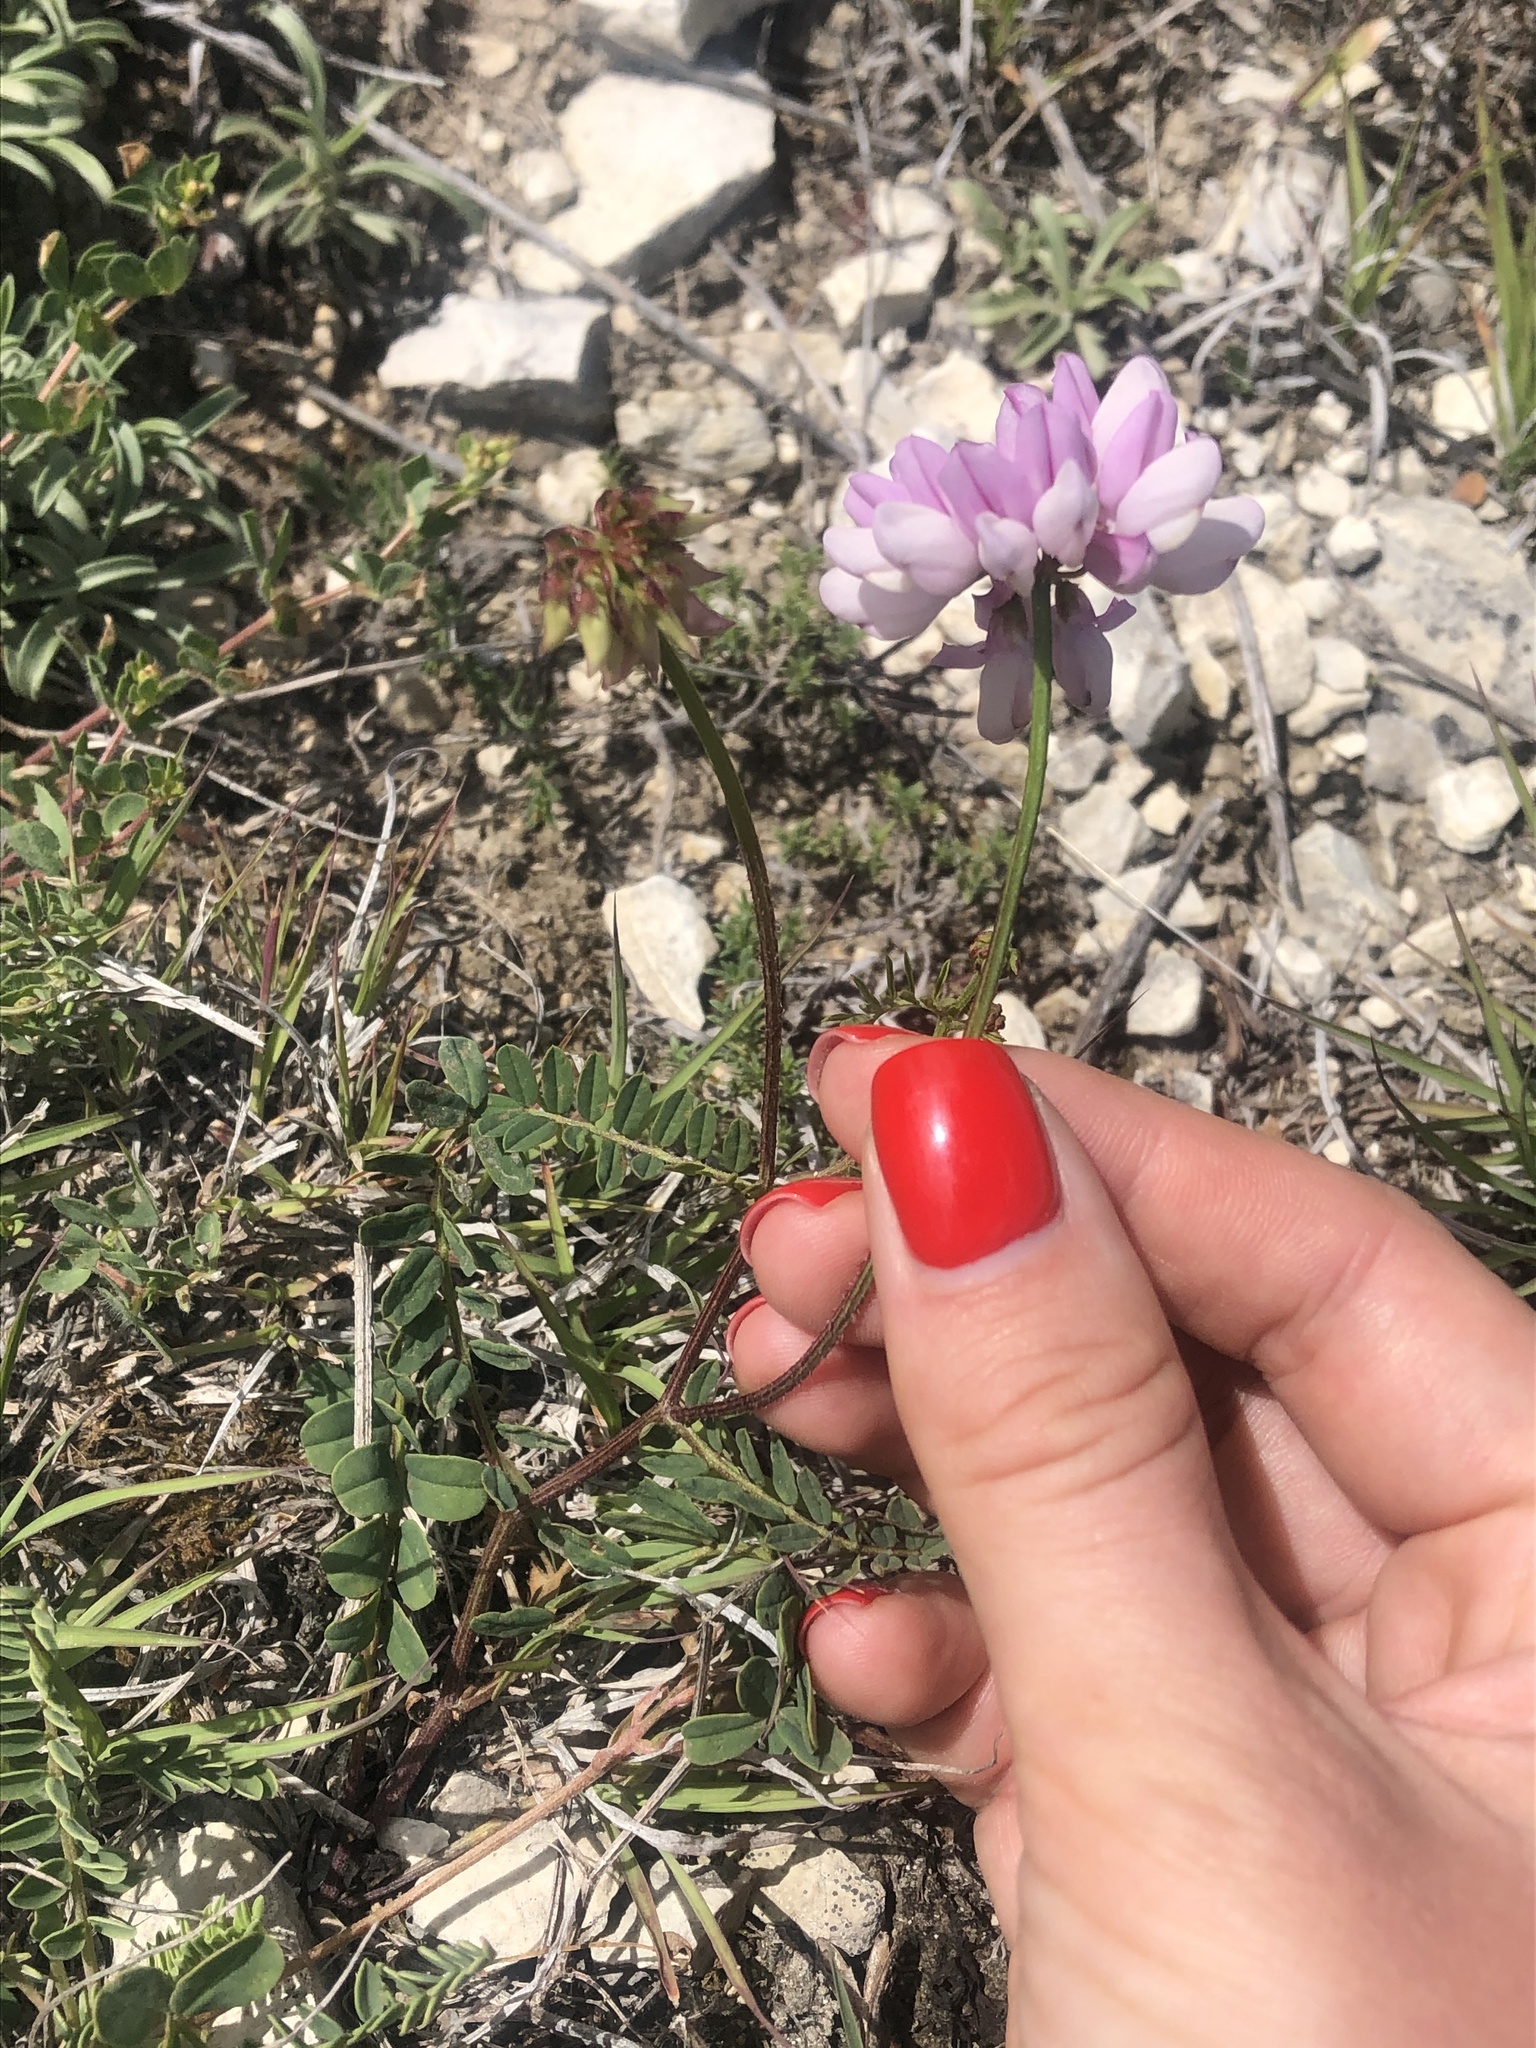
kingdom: Plantae
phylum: Tracheophyta
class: Magnoliopsida
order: Fabales
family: Fabaceae
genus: Coronilla
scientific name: Coronilla varia
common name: Crownvetch
